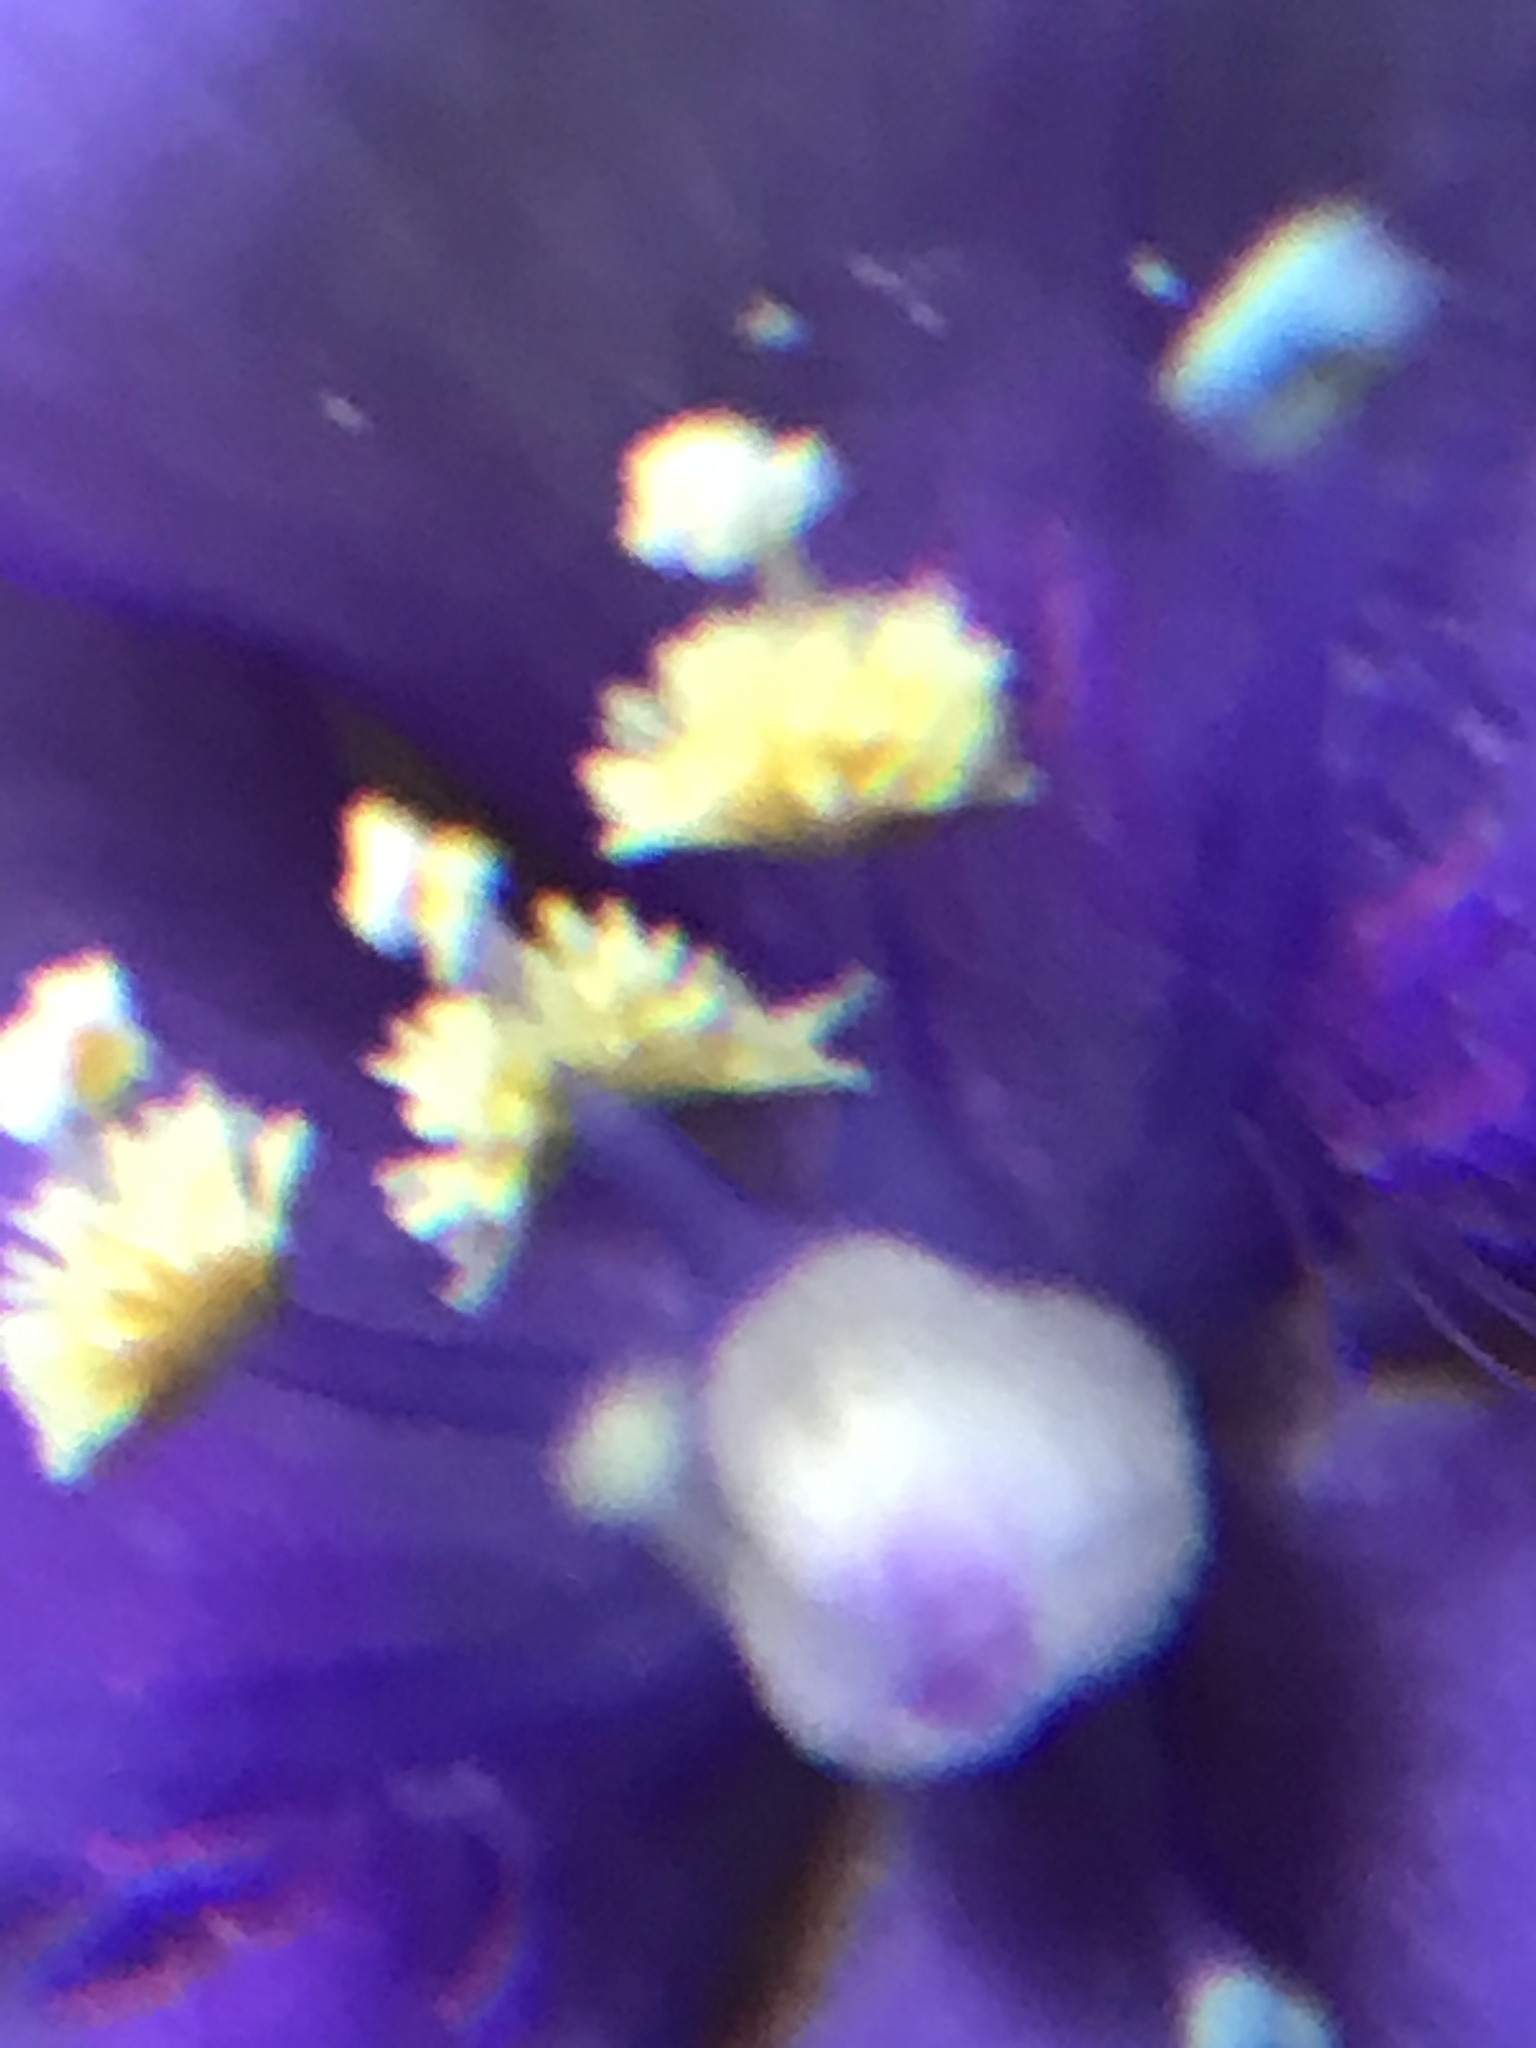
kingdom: Plantae
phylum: Tracheophyta
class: Liliopsida
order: Commelinales
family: Commelinaceae
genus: Tinantia
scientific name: Tinantia pringlei
